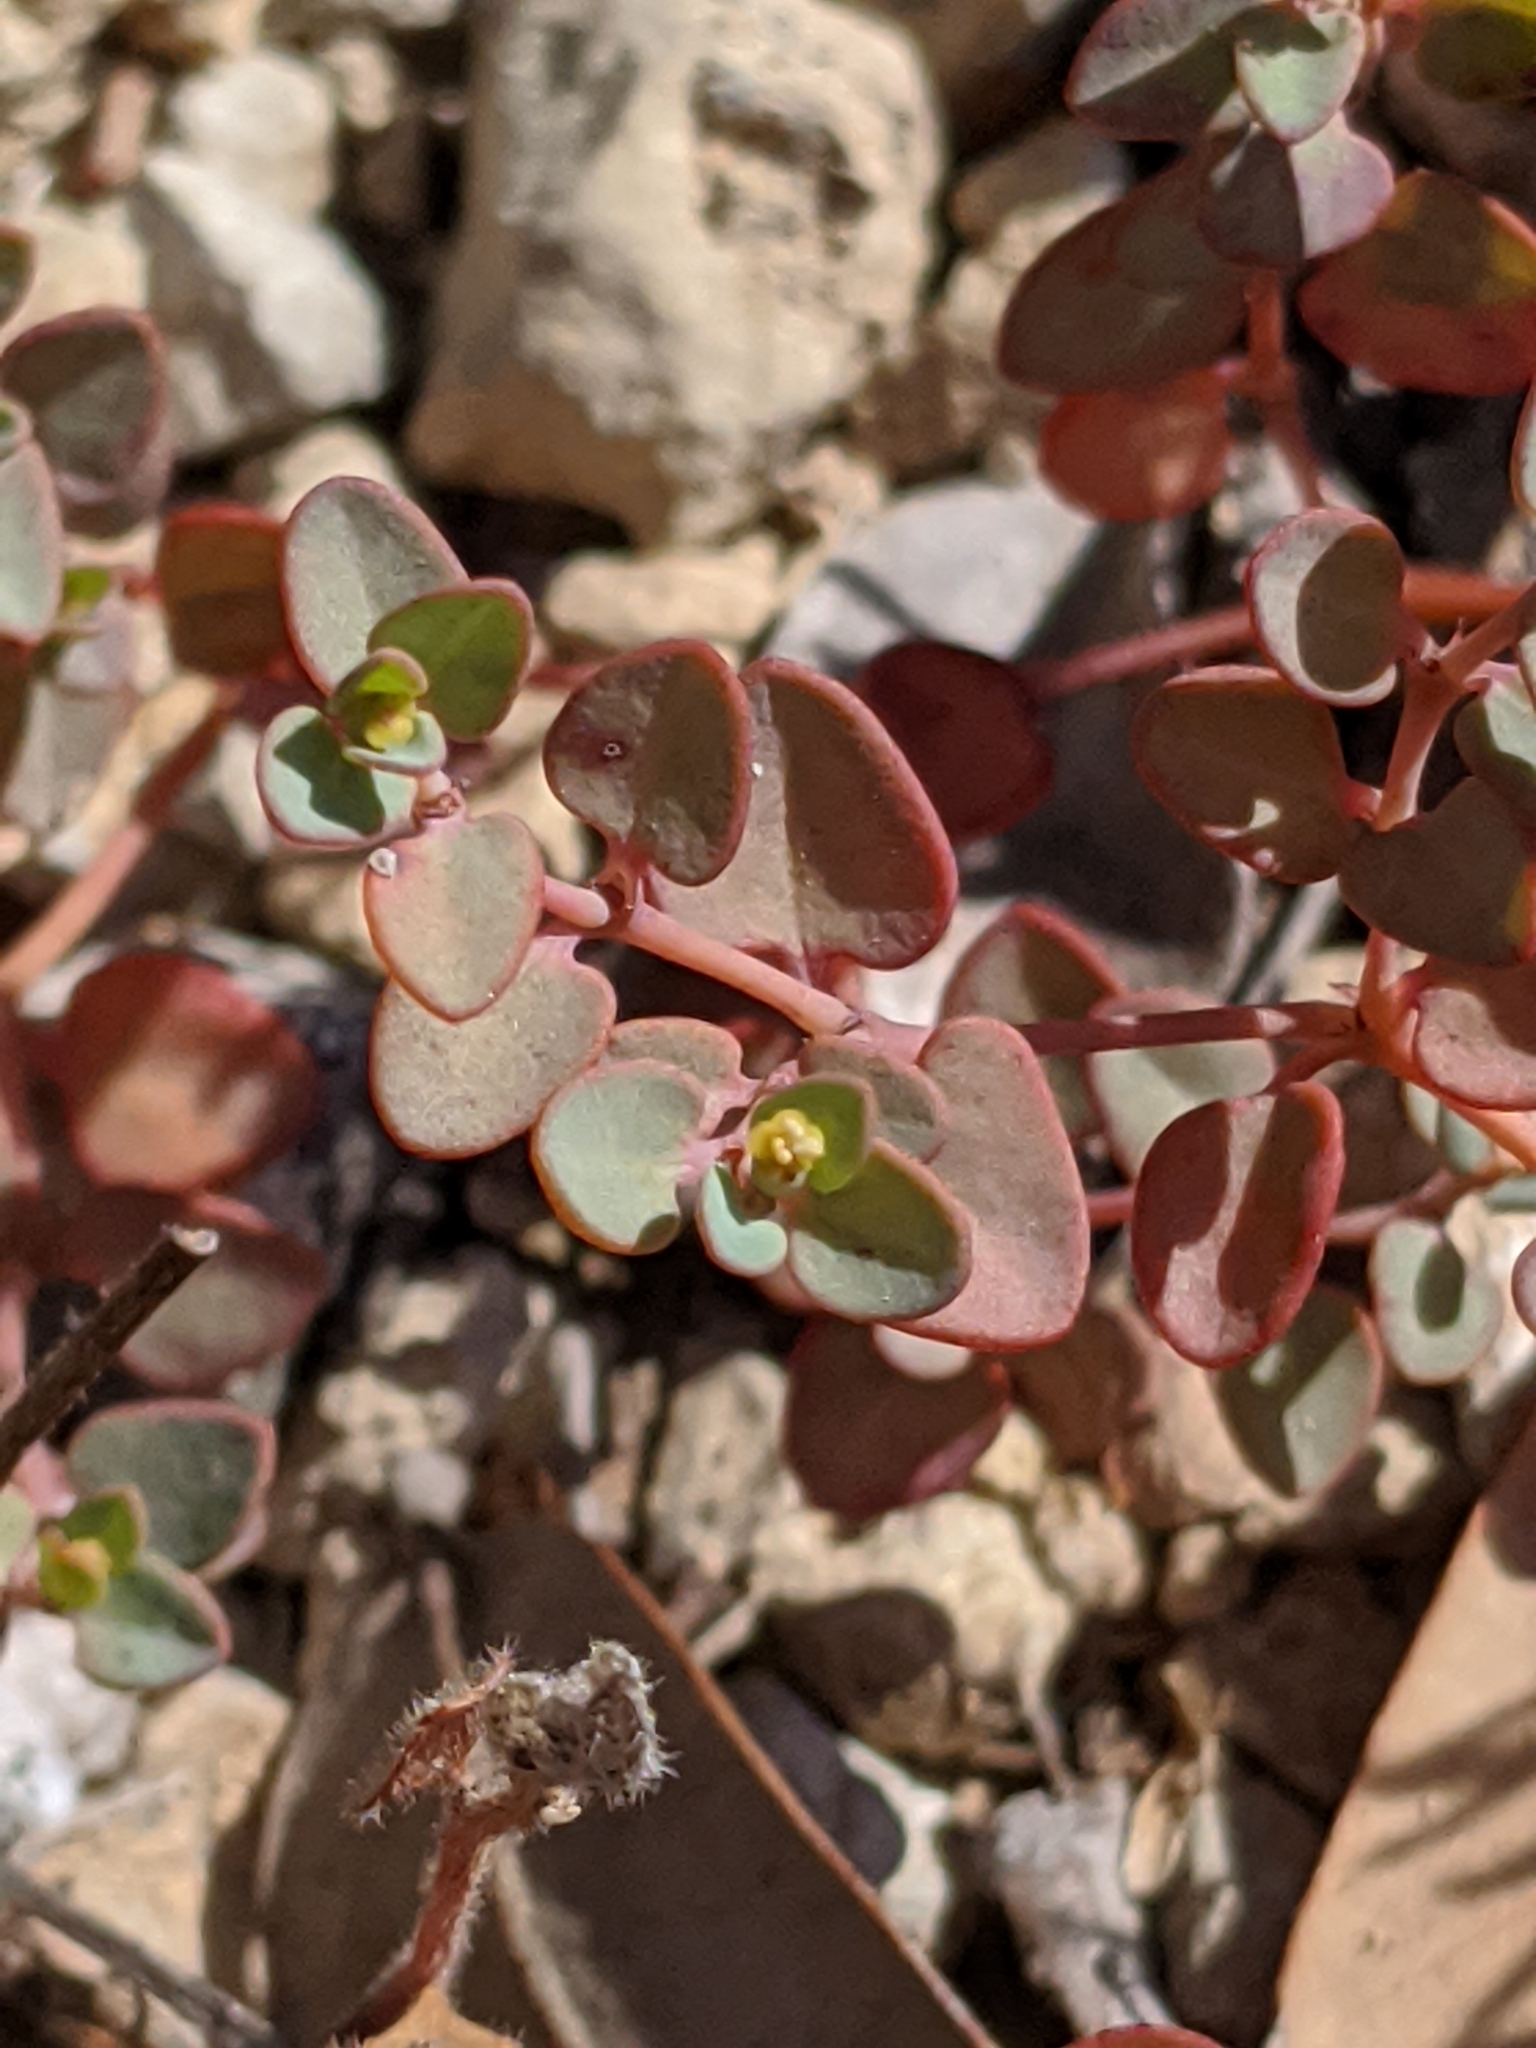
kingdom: Plantae
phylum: Tracheophyta
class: Magnoliopsida
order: Malpighiales
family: Euphorbiaceae
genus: Euphorbia
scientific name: Euphorbia fendleri
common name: Fendler's euphorbia
